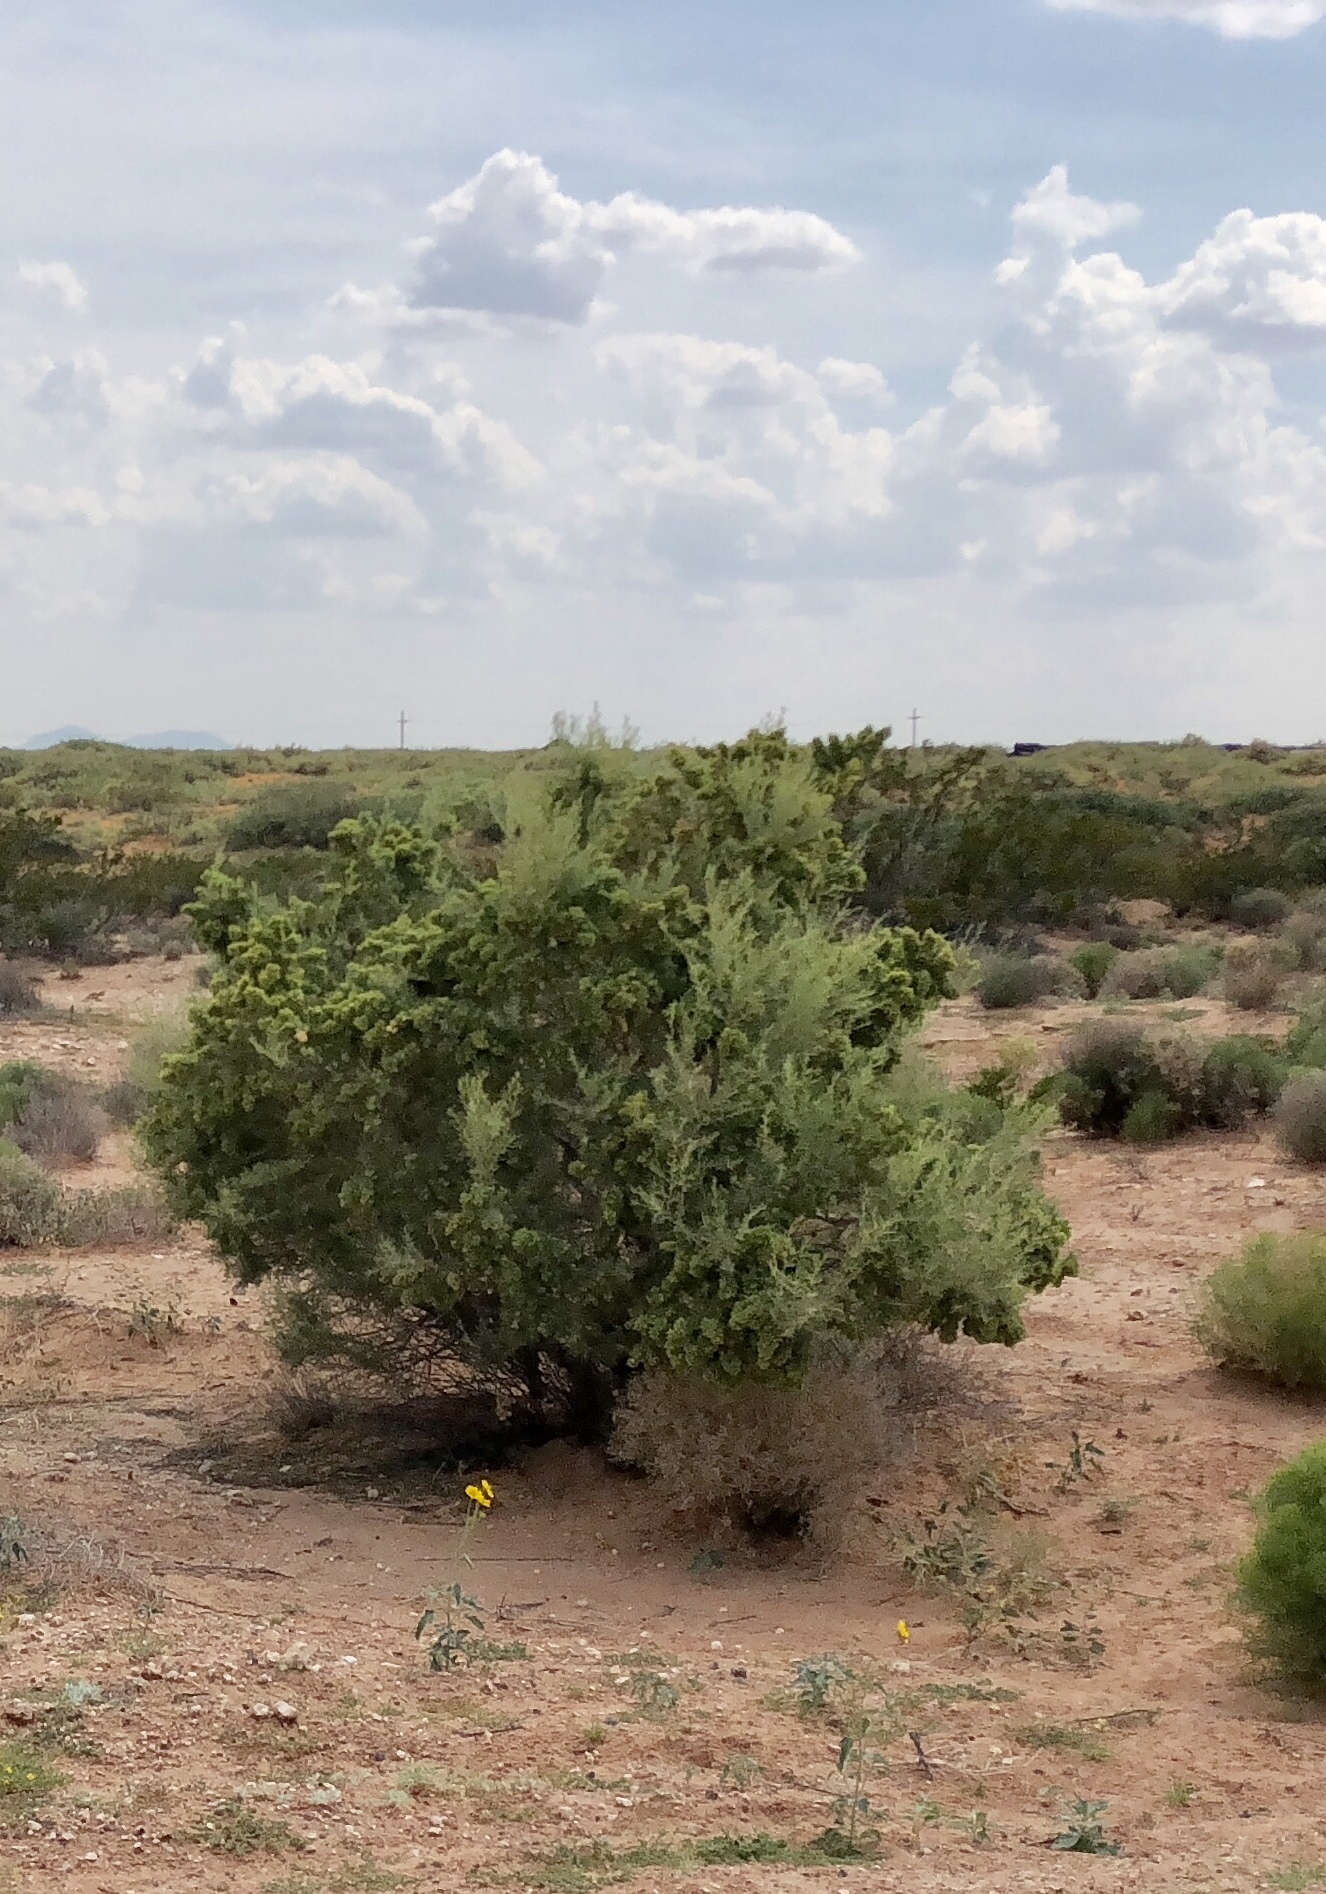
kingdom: Plantae
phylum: Tracheophyta
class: Magnoliopsida
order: Caryophyllales
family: Amaranthaceae
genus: Atriplex
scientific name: Atriplex canescens
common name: Four-wing saltbush
